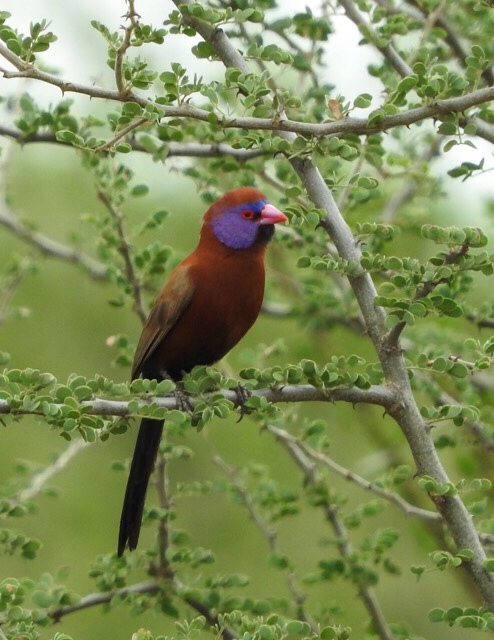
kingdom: Animalia
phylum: Chordata
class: Aves
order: Passeriformes
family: Estrildidae
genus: Uraeginthus
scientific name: Uraeginthus granatinus
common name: Violet-eared waxbill
